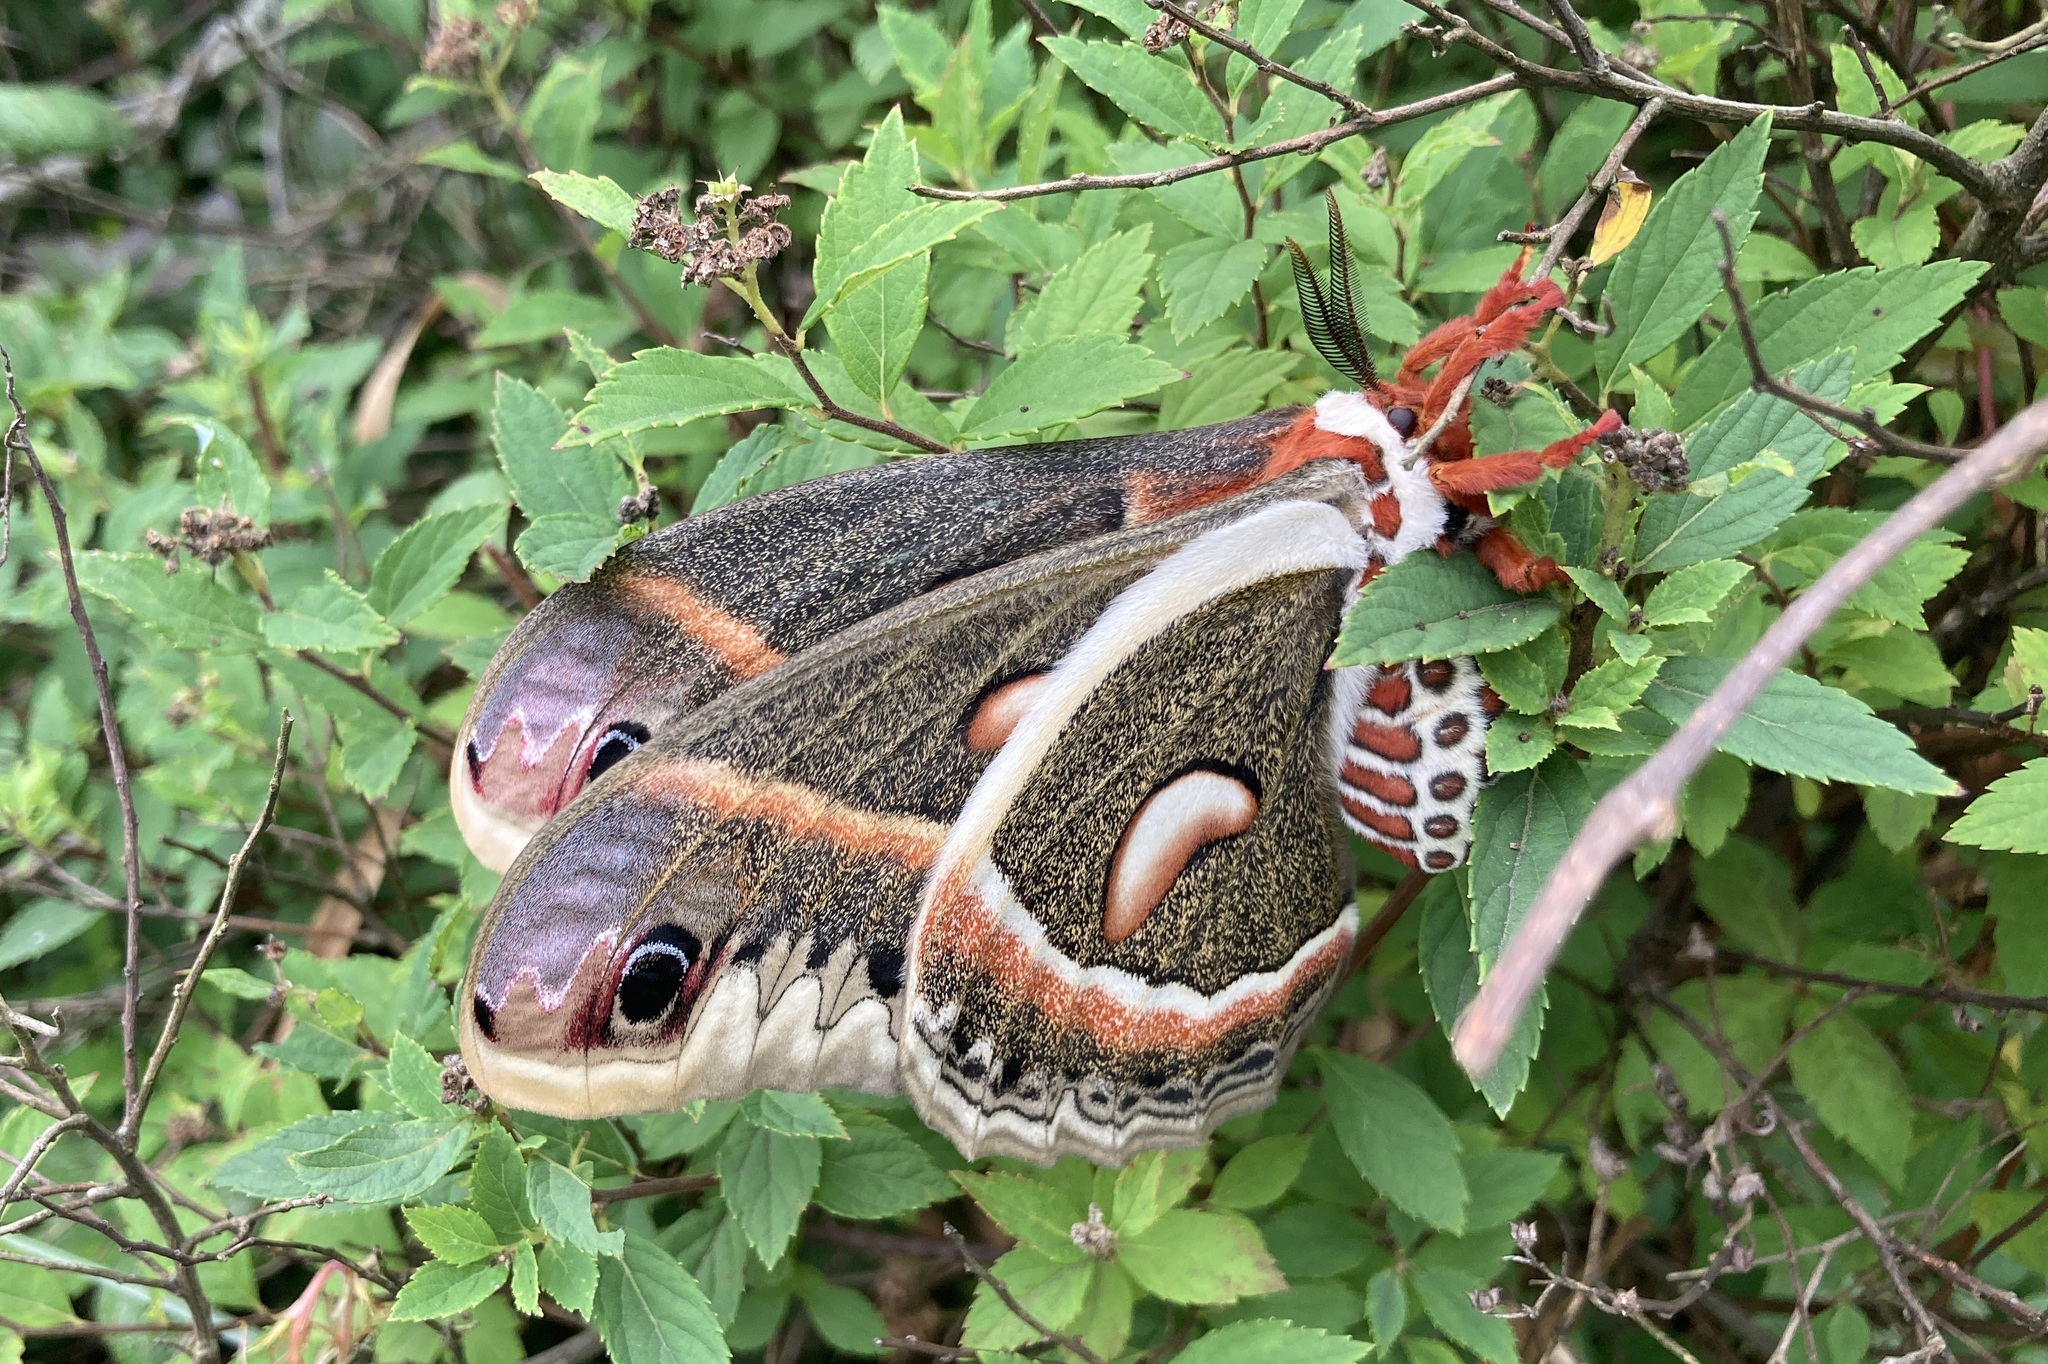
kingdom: Animalia
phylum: Arthropoda
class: Insecta
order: Lepidoptera
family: Saturniidae
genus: Hyalophora
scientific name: Hyalophora cecropia
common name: Cecropia silkmoth
